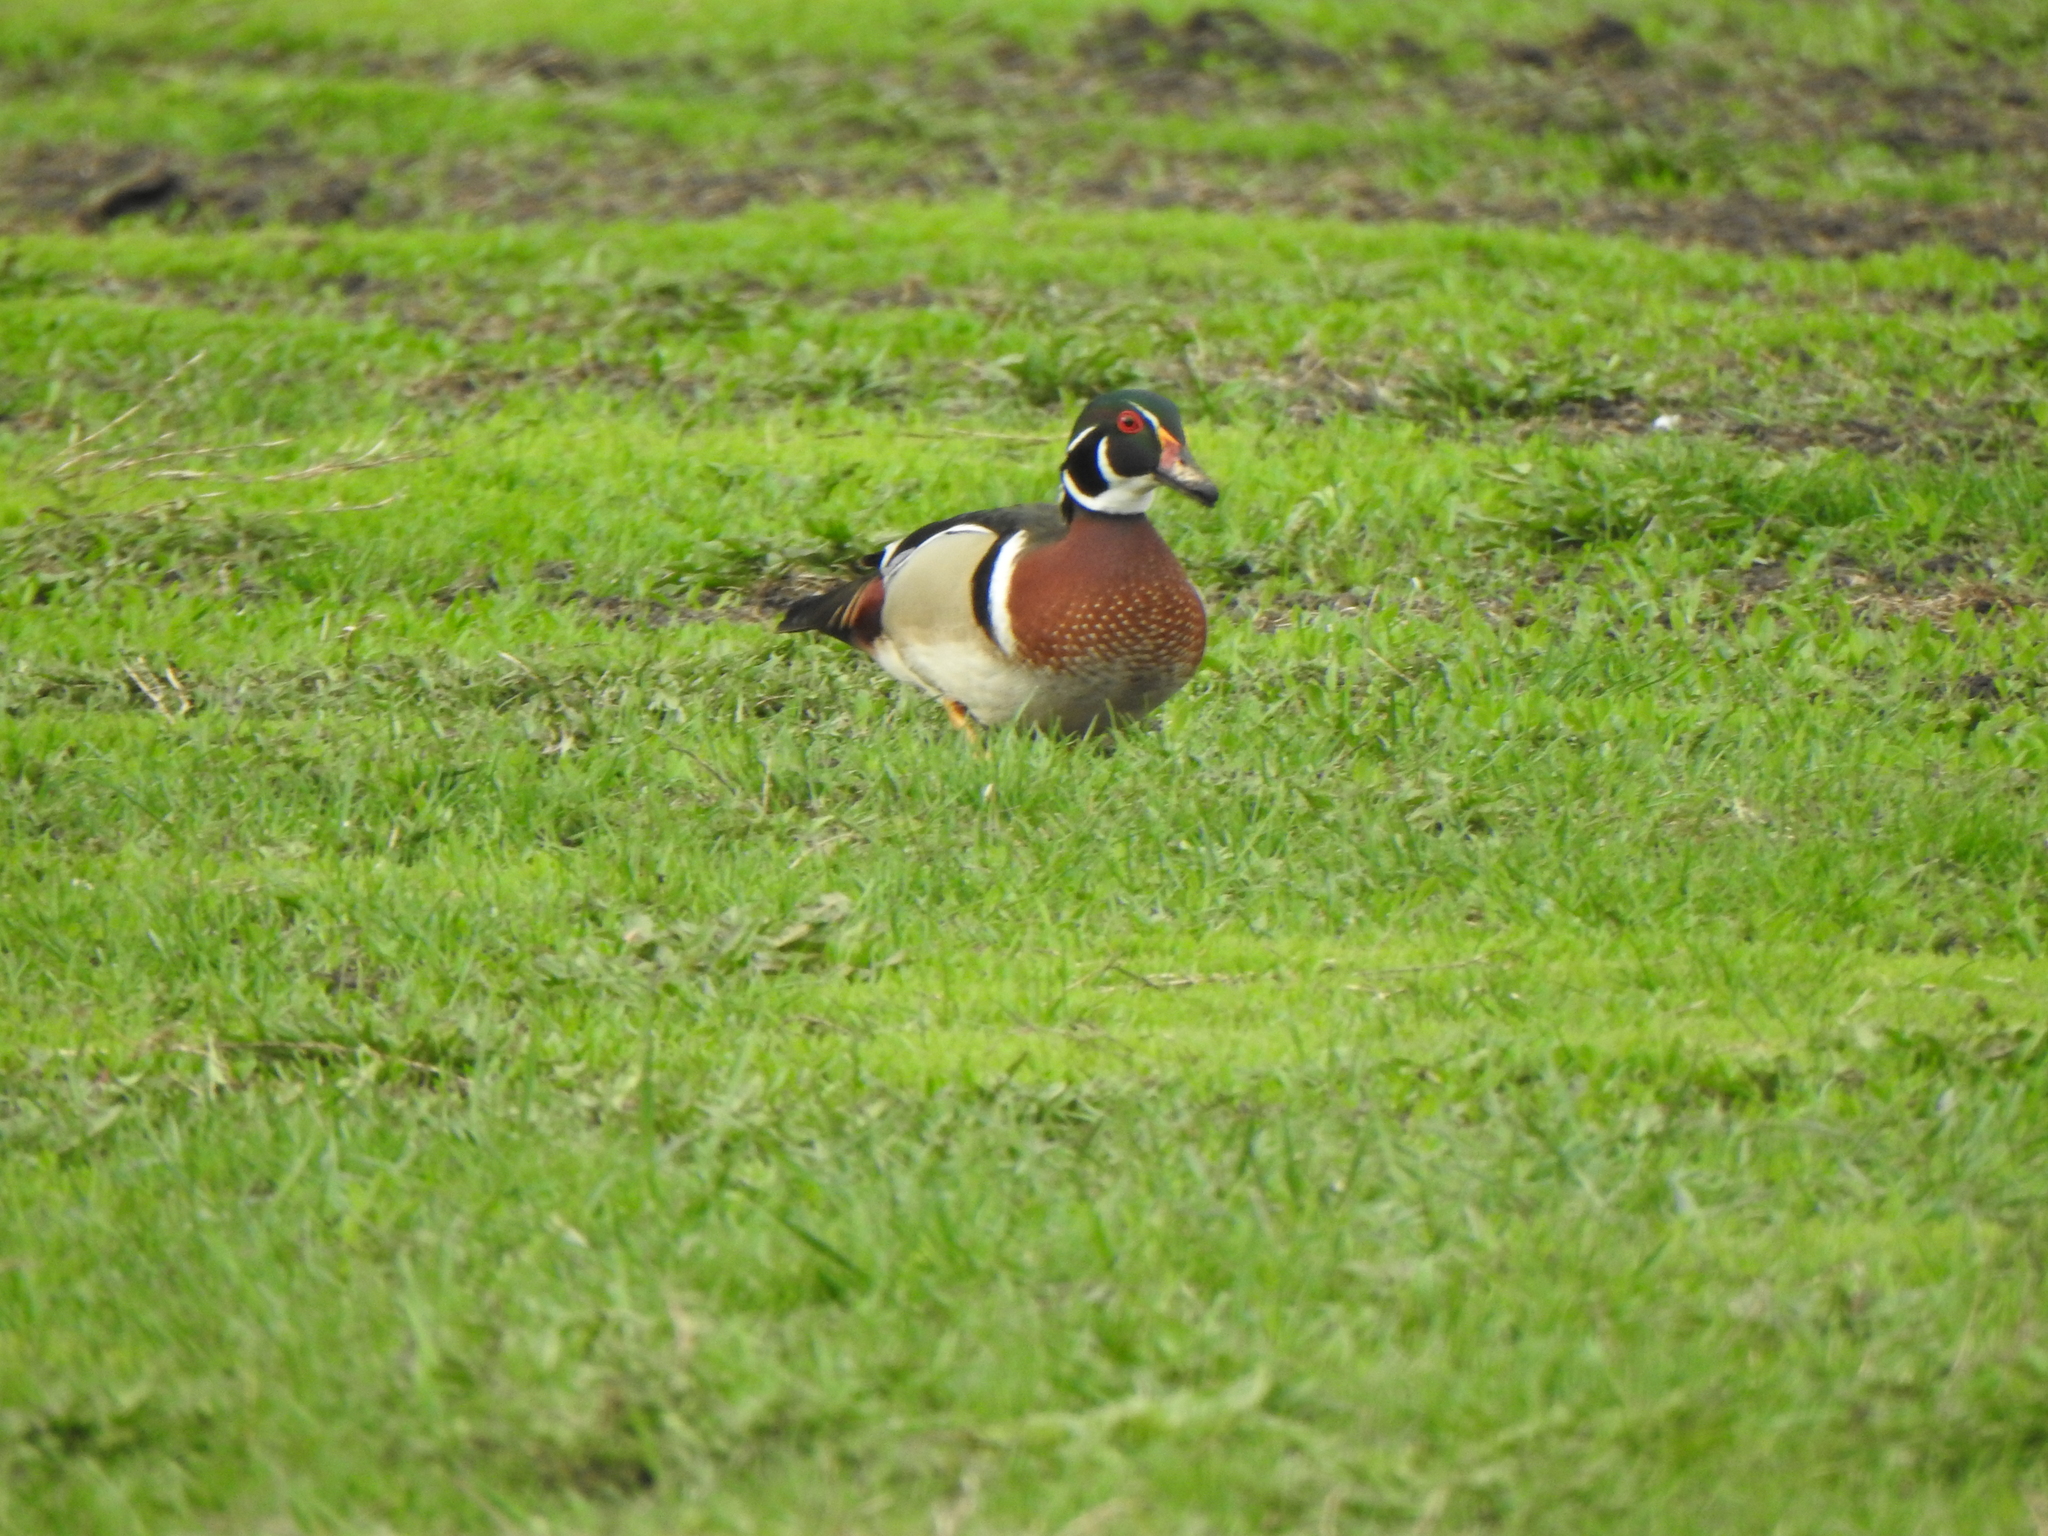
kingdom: Animalia
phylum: Chordata
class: Aves
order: Anseriformes
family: Anatidae
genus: Aix
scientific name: Aix sponsa
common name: Wood duck
